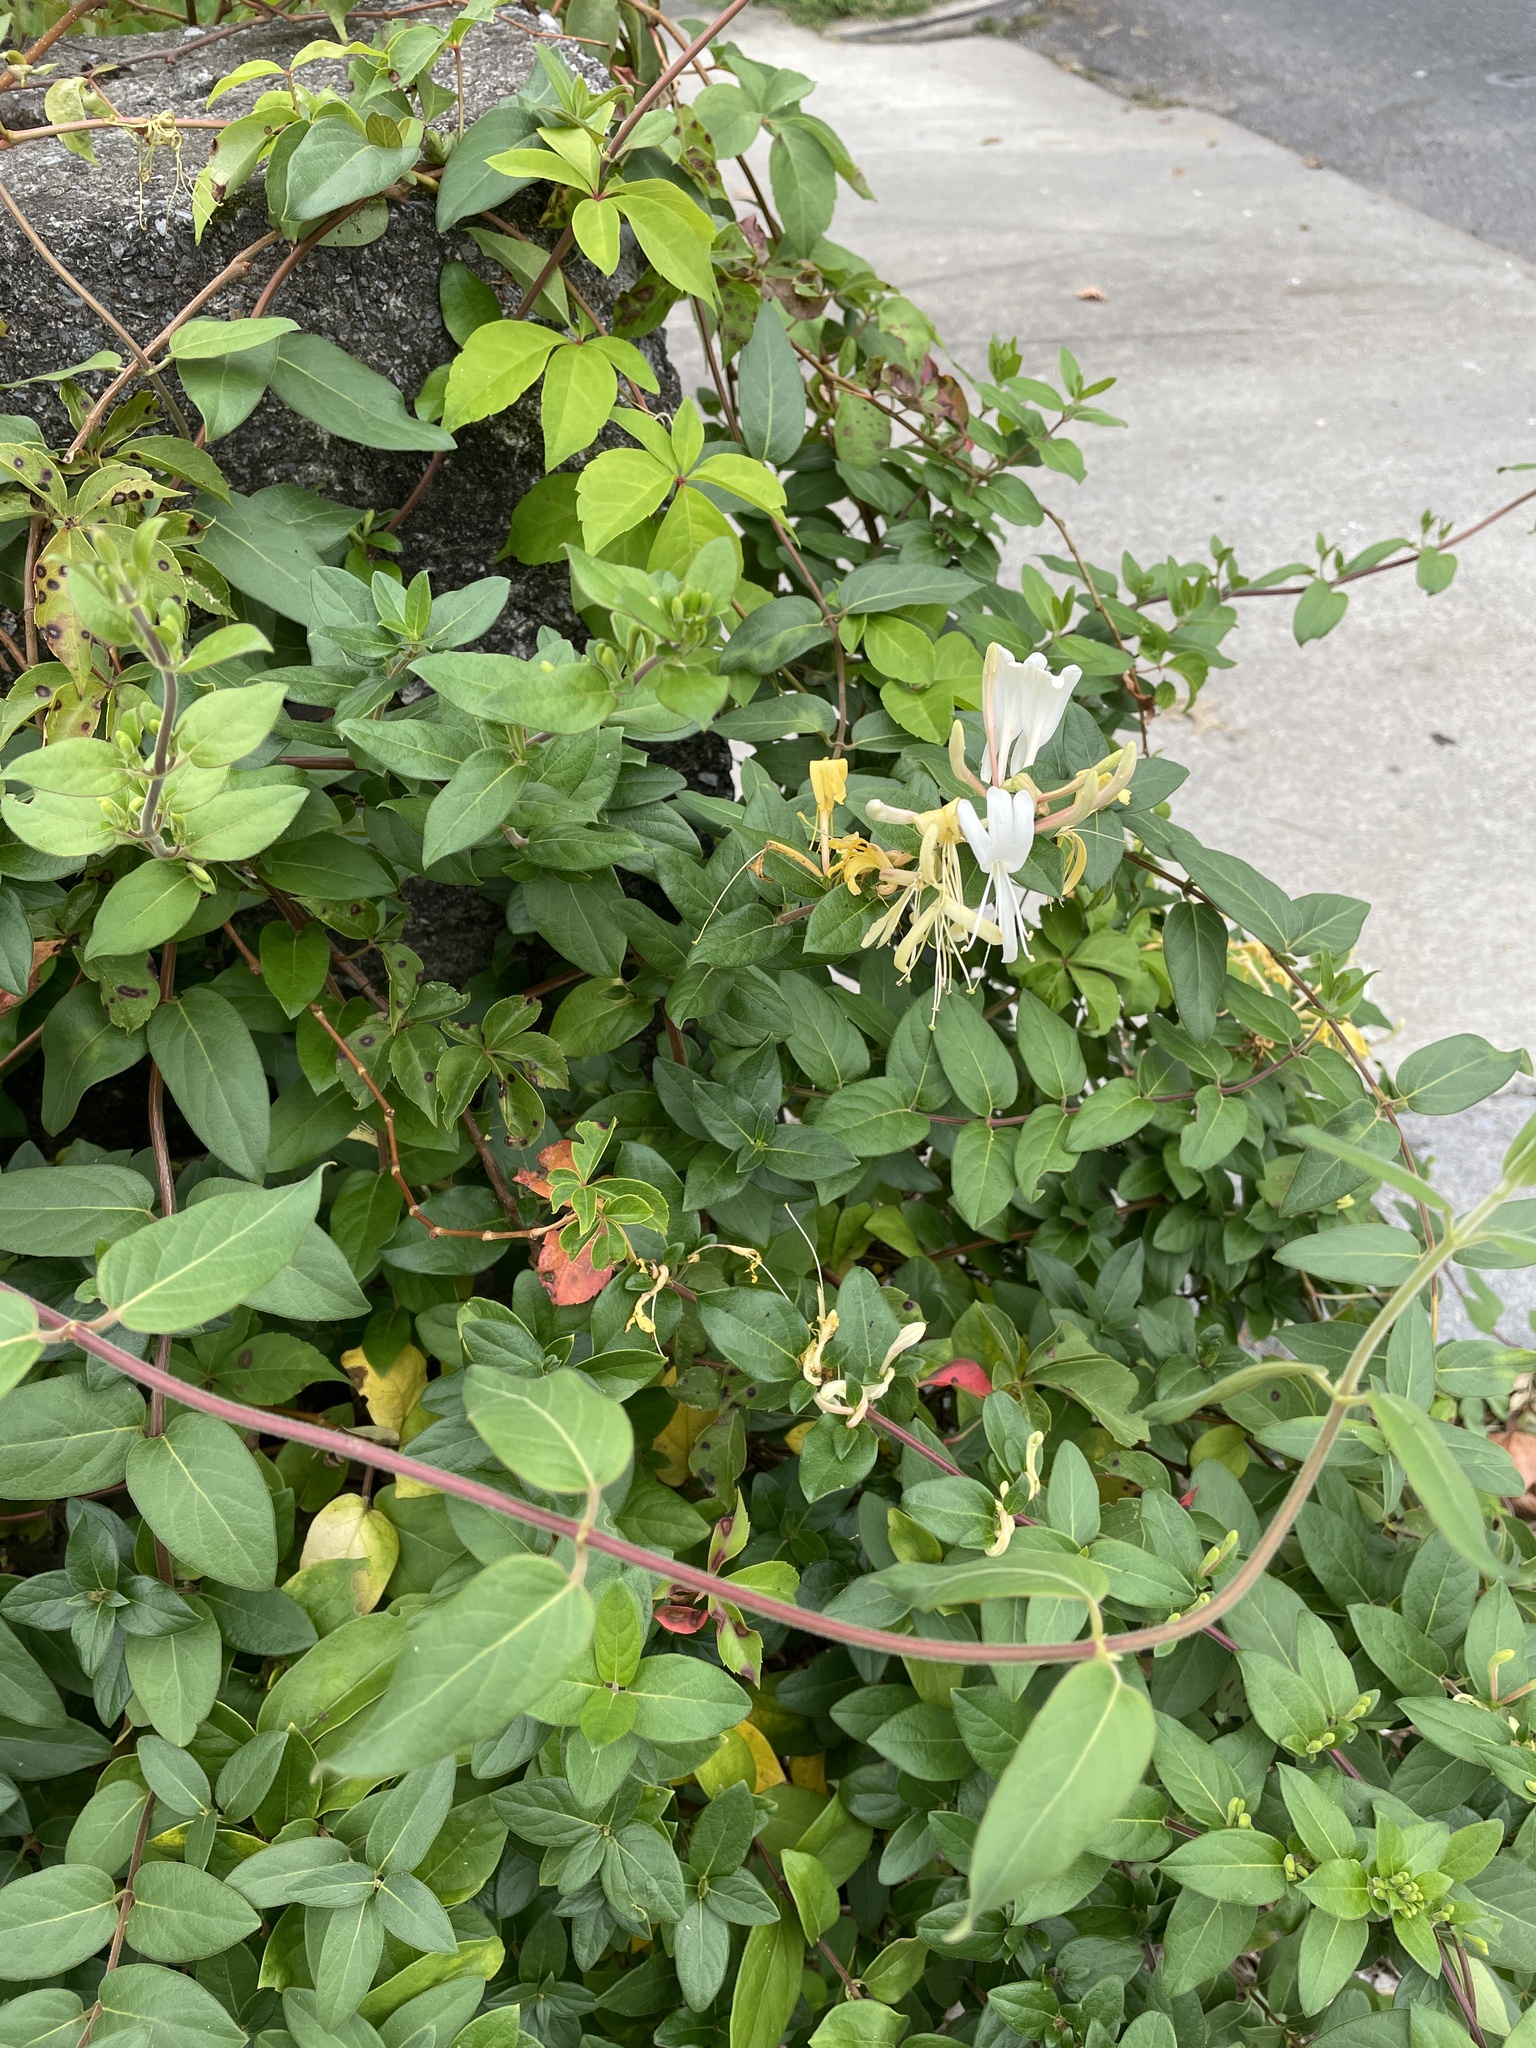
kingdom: Plantae
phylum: Tracheophyta
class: Magnoliopsida
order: Dipsacales
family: Caprifoliaceae
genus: Lonicera
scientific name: Lonicera japonica
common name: Japanese honeysuckle
